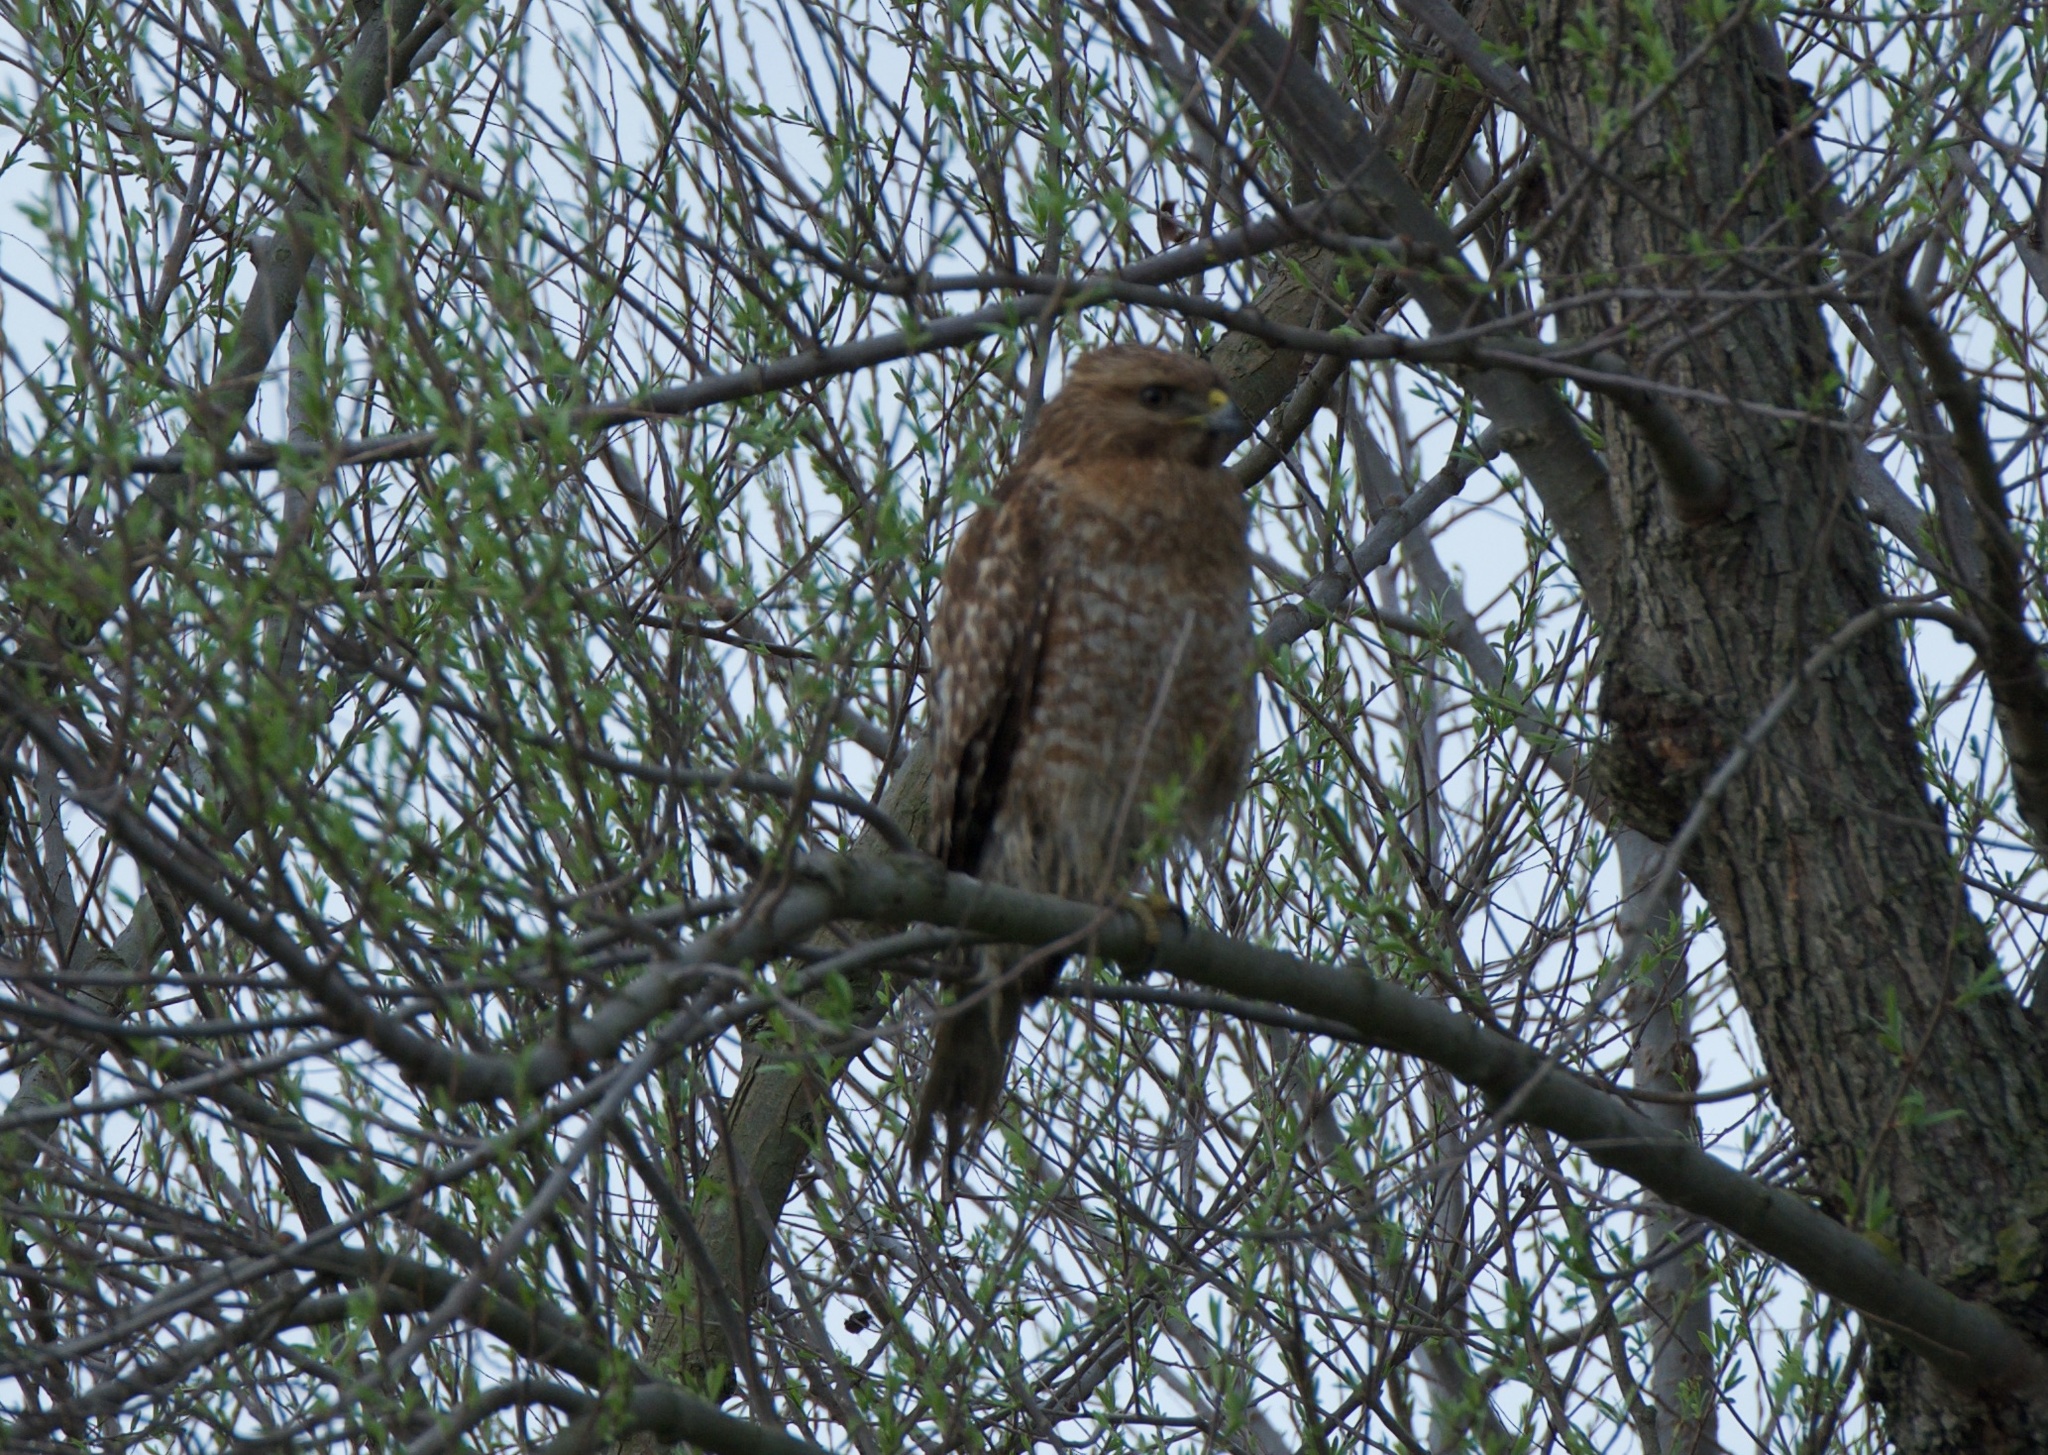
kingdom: Animalia
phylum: Chordata
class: Aves
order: Accipitriformes
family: Accipitridae
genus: Buteo
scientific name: Buteo lineatus
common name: Red-shouldered hawk
